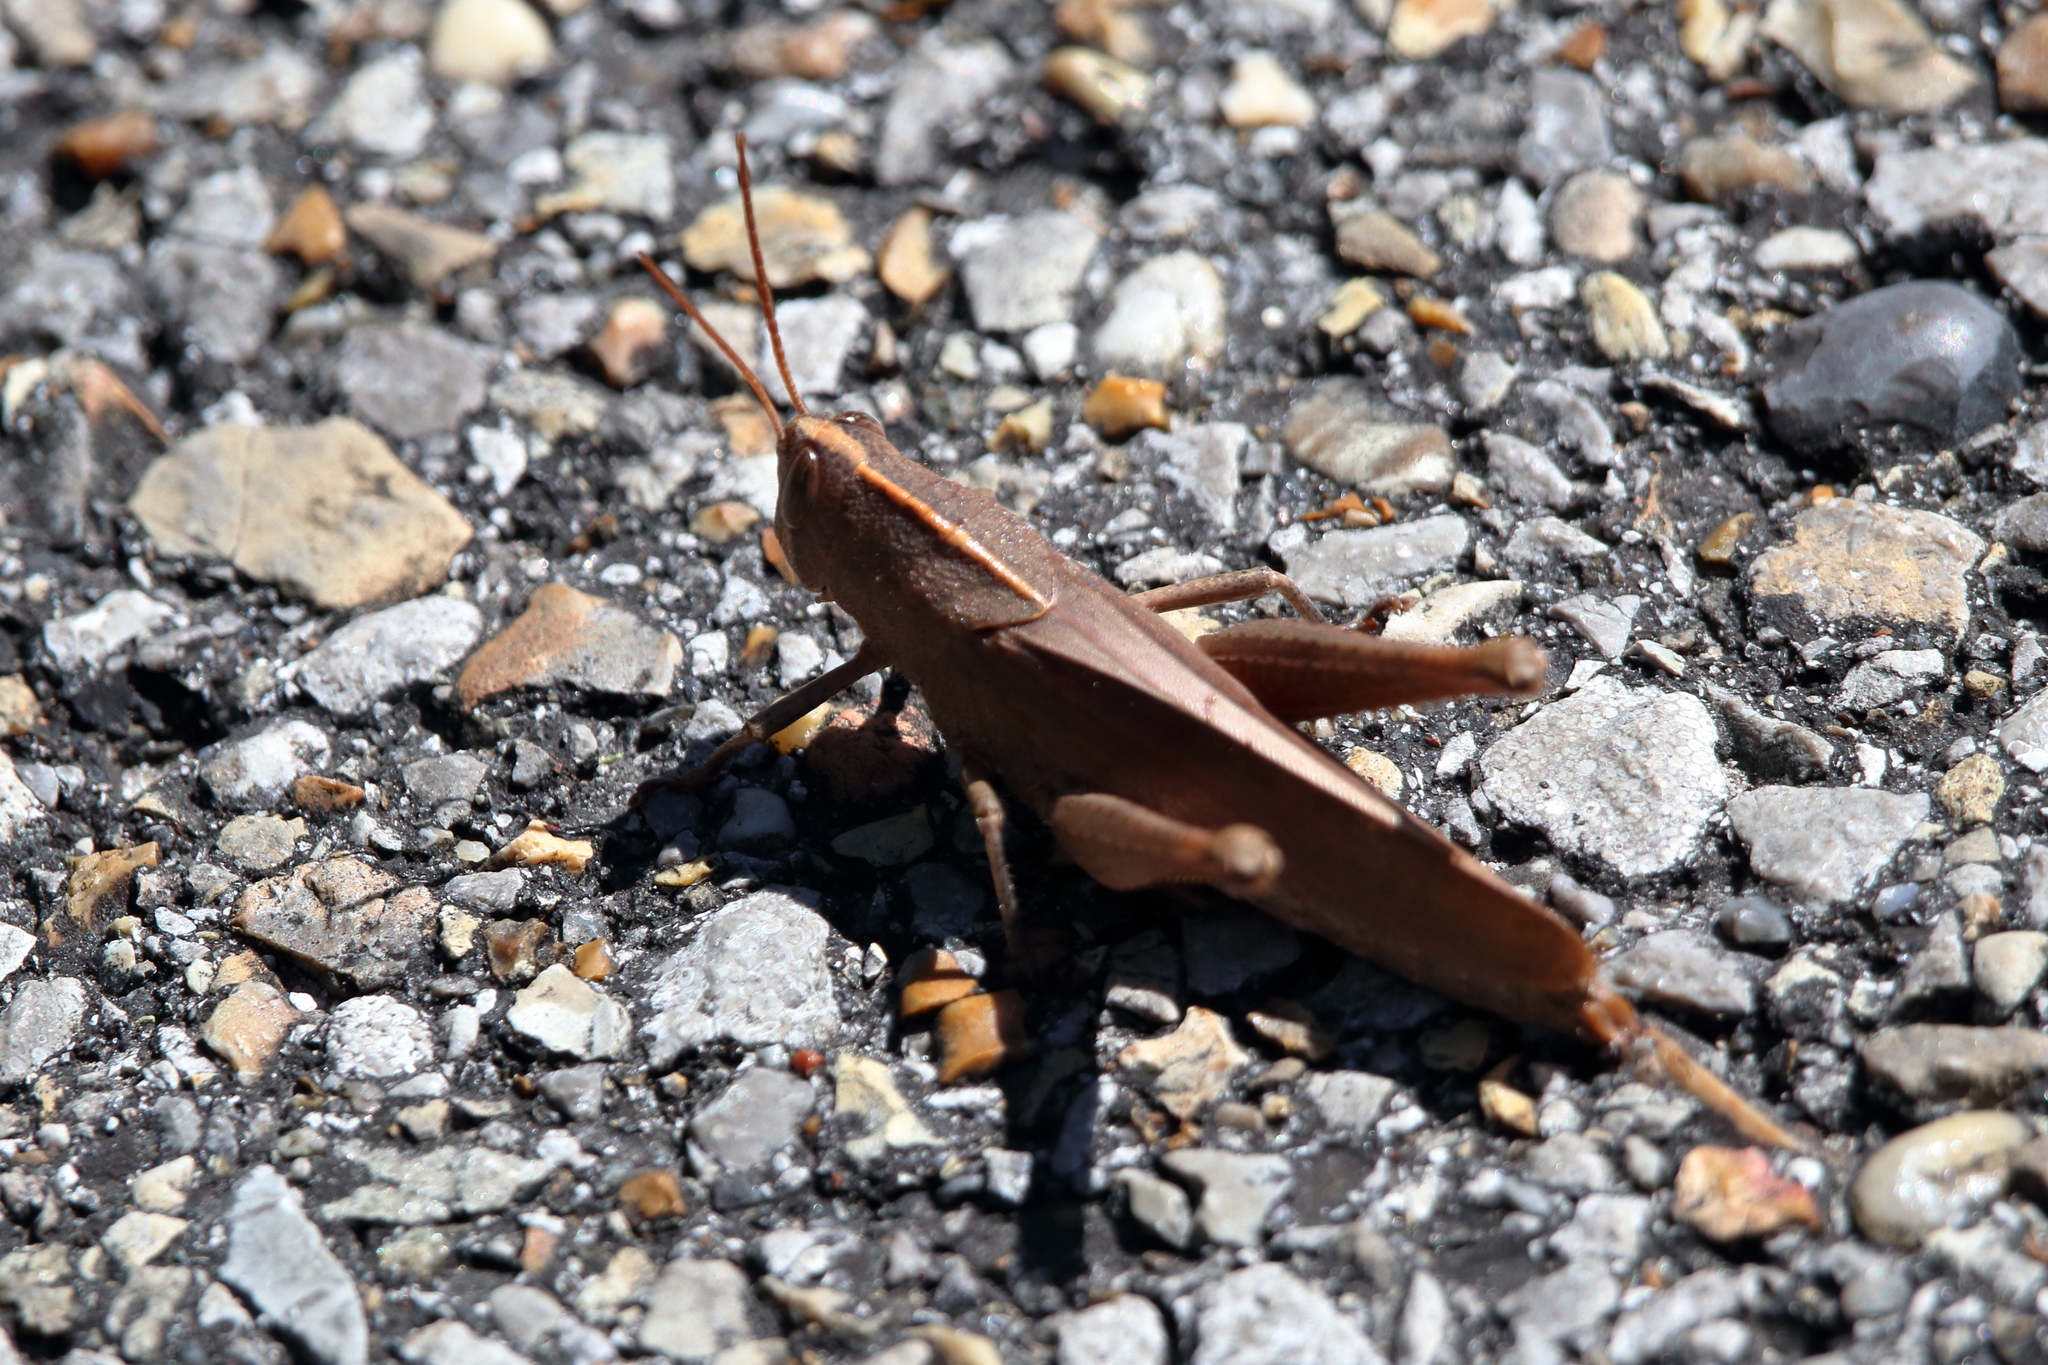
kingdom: Animalia
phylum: Arthropoda
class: Insecta
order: Orthoptera
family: Acrididae
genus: Schistocerca
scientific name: Schistocerca damnifica
